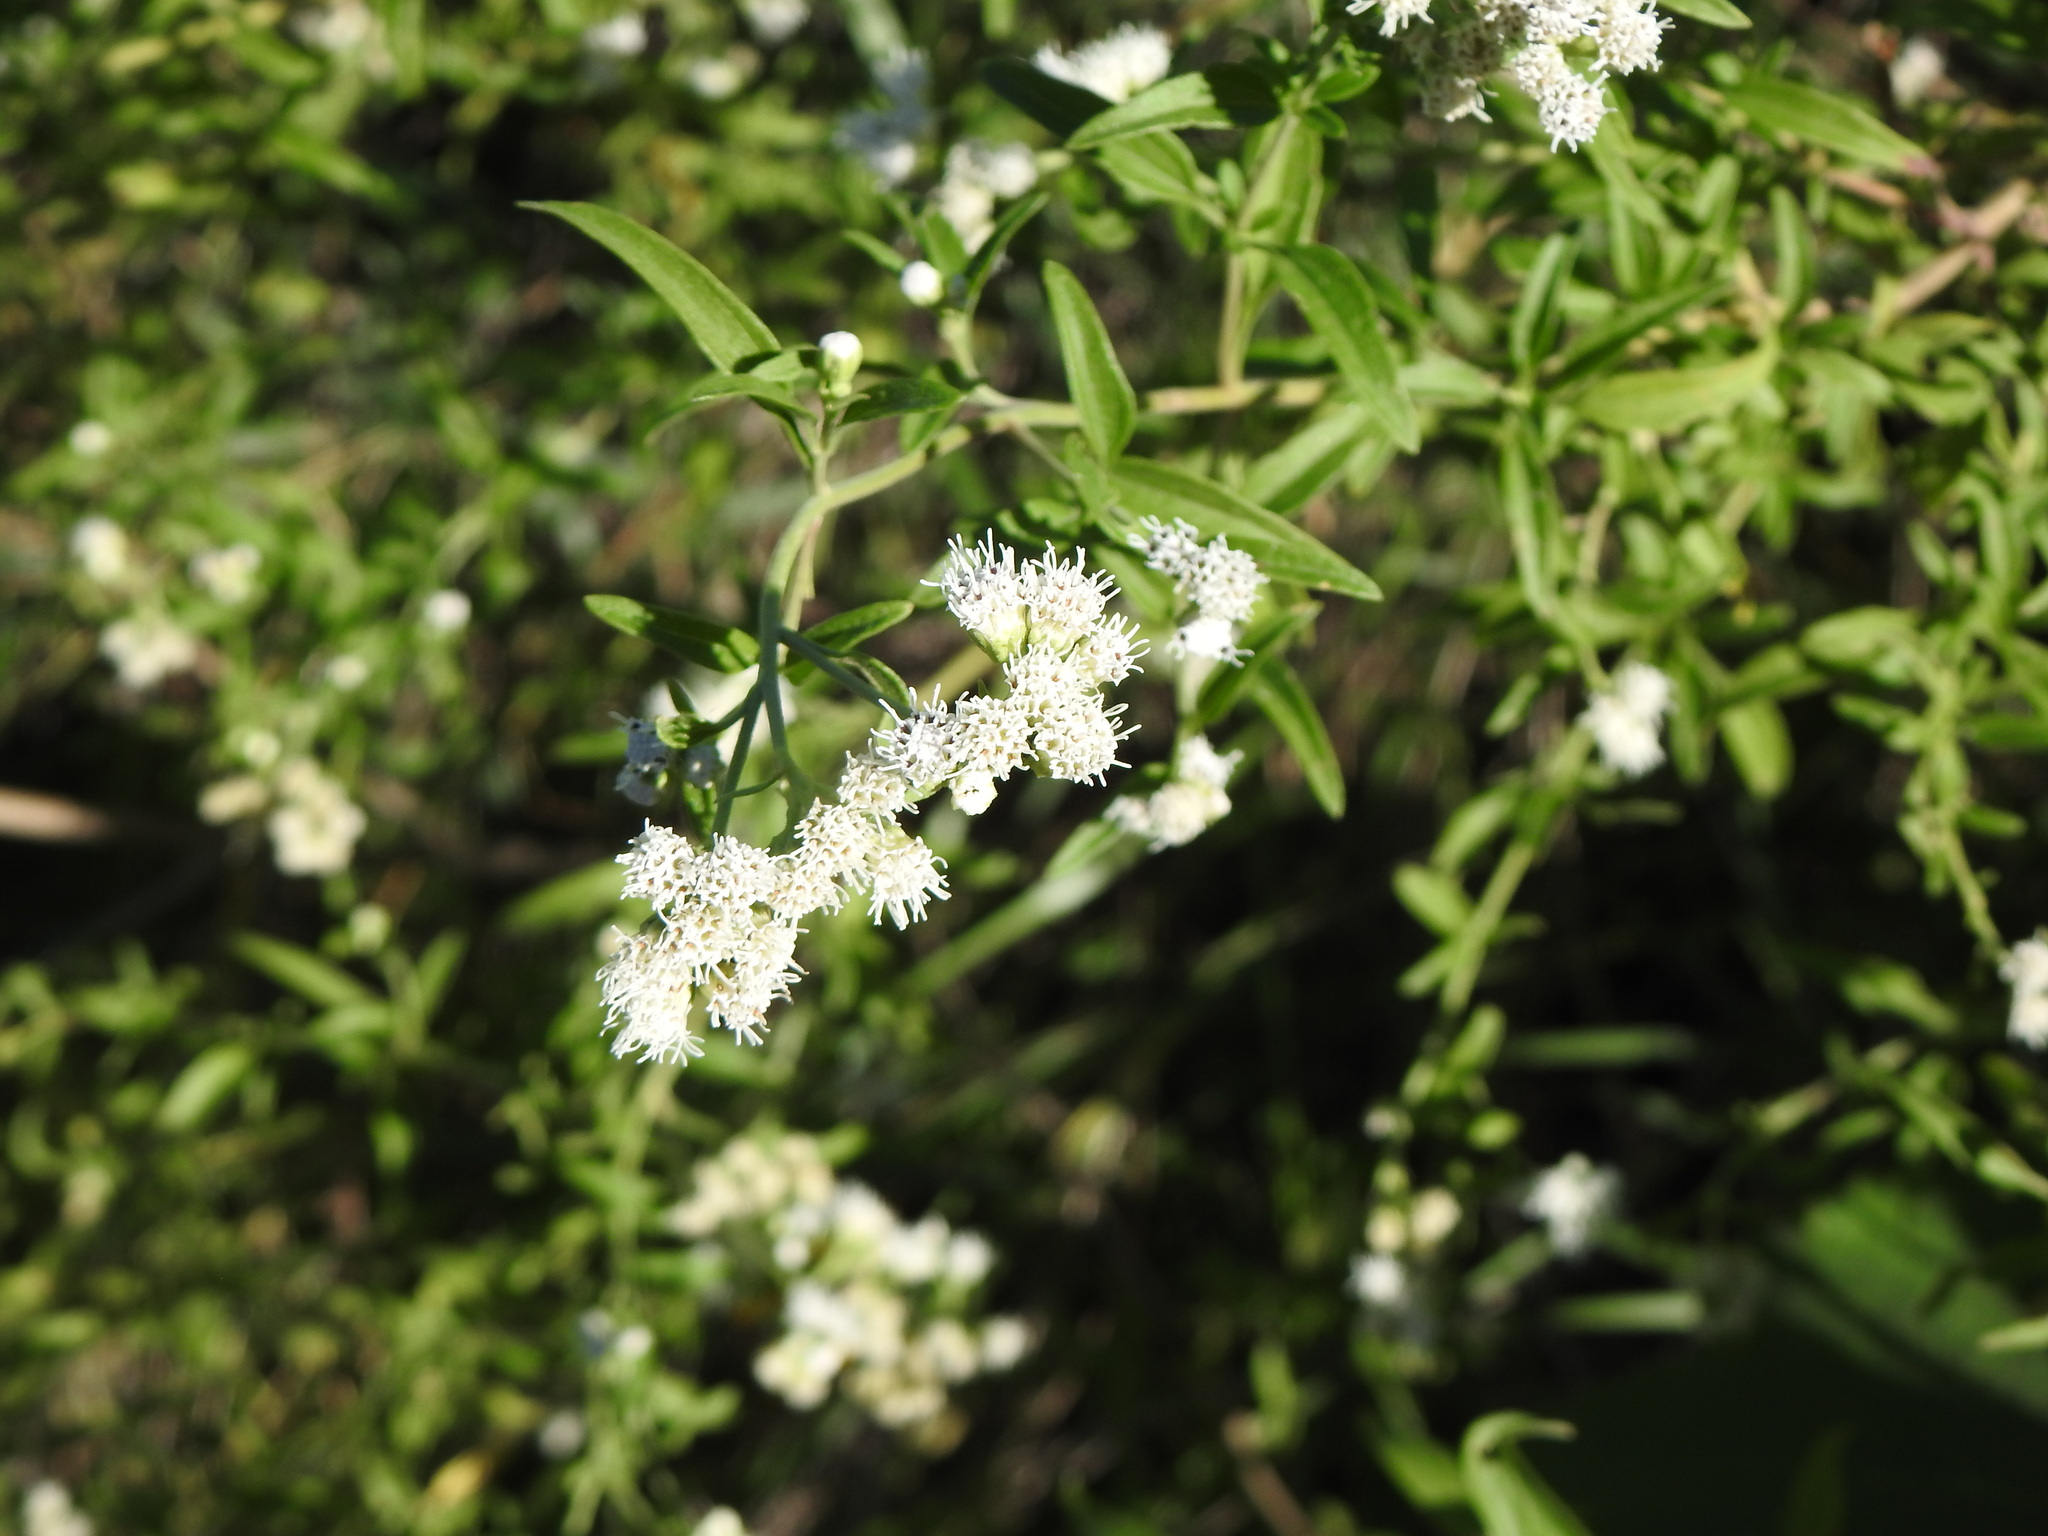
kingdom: Plantae
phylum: Tracheophyta
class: Magnoliopsida
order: Asterales
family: Asteraceae
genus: Hatschbachiella
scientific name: Hatschbachiella tweedieana
